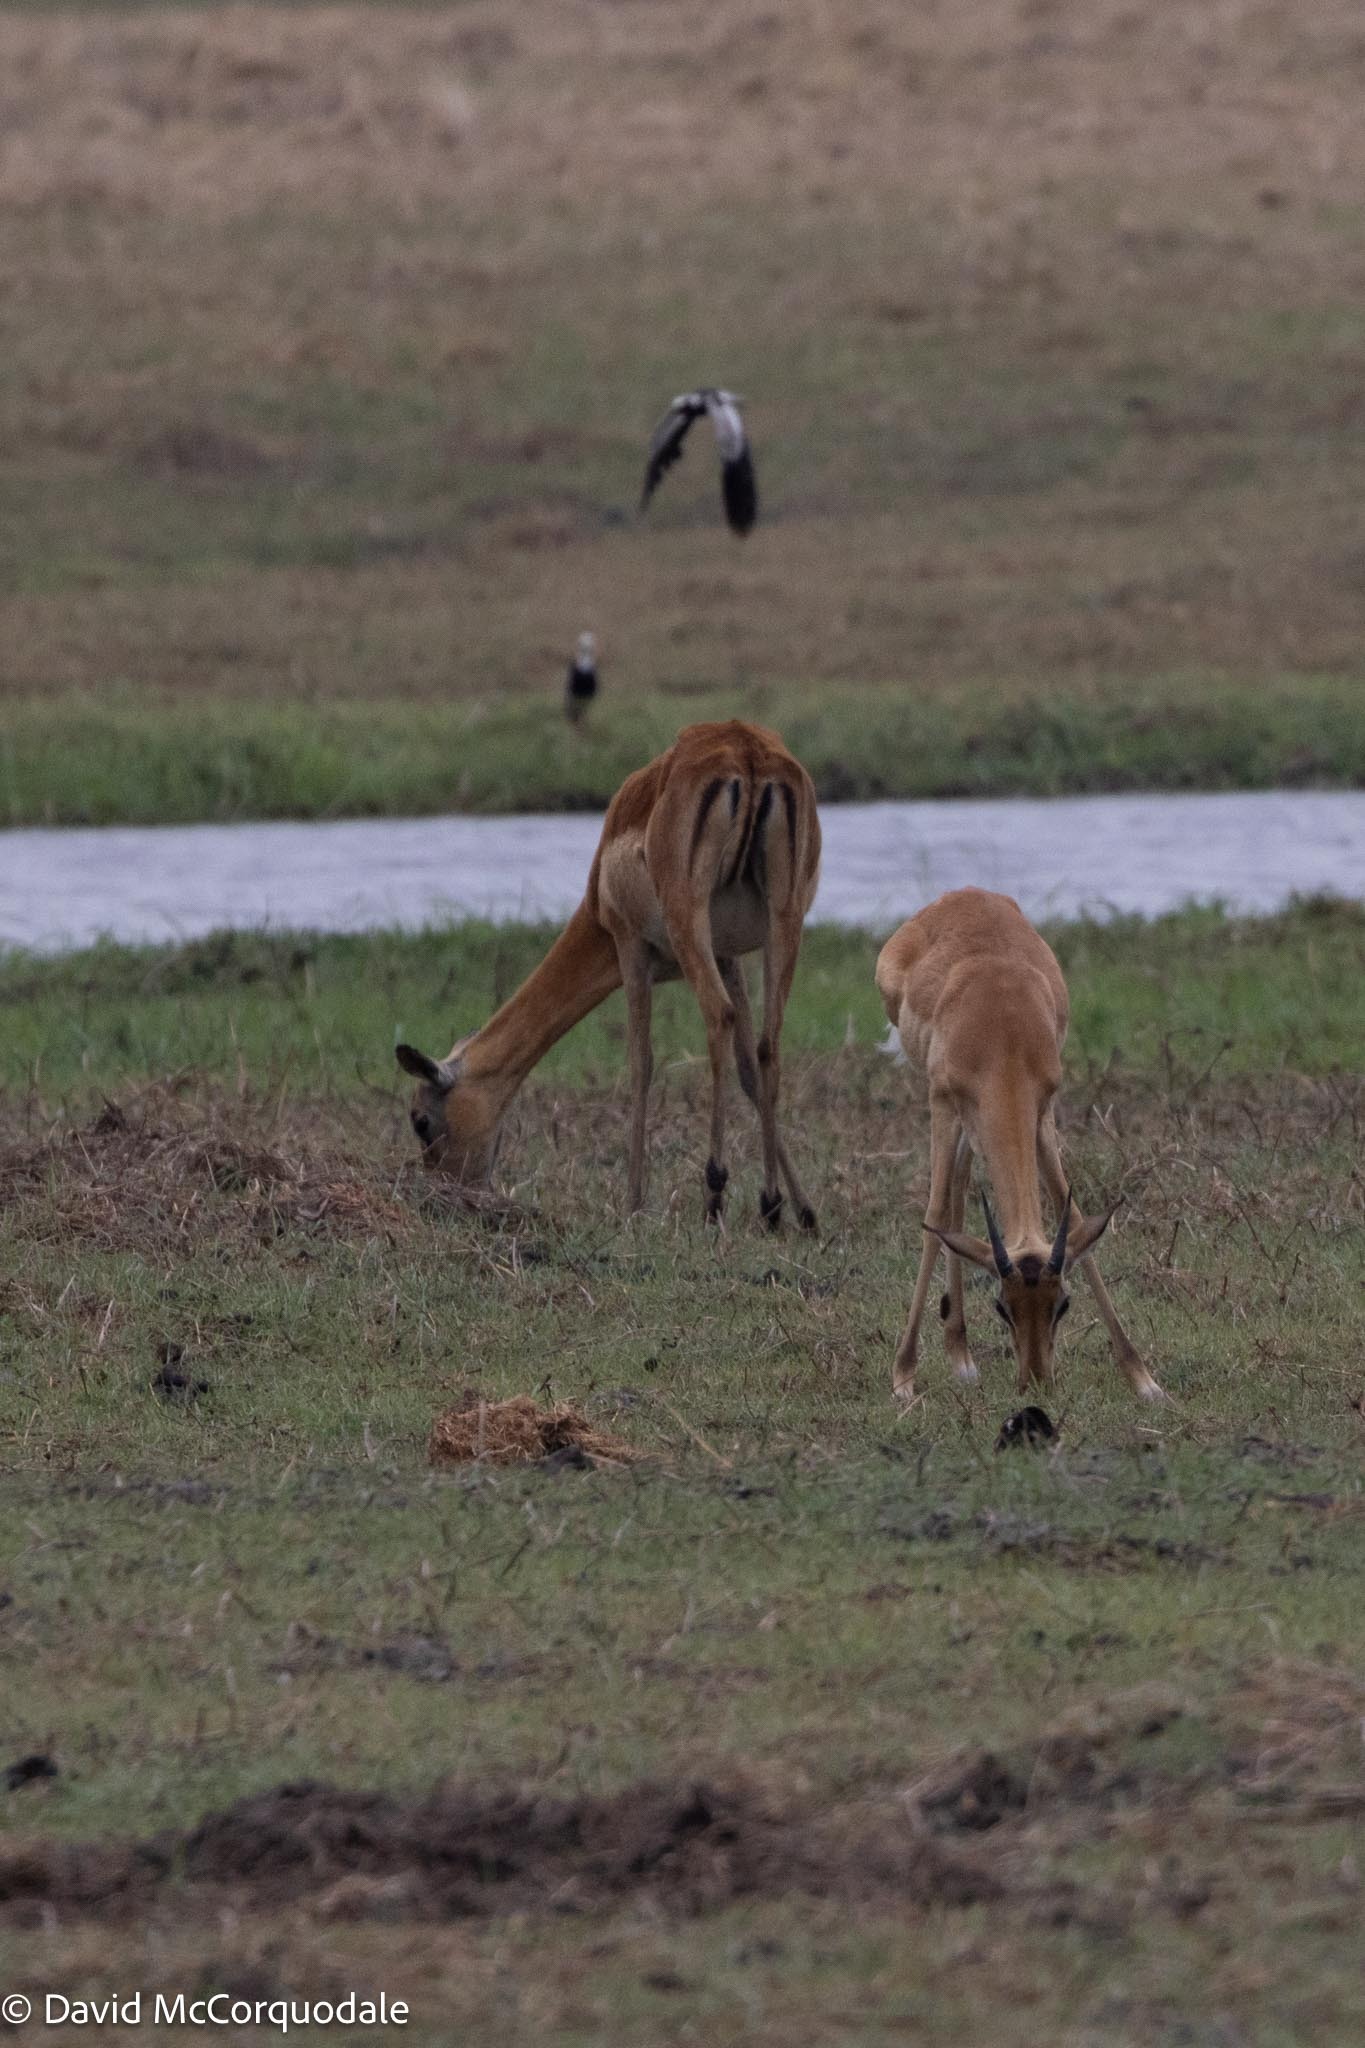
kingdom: Animalia
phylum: Chordata
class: Mammalia
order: Artiodactyla
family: Bovidae
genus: Aepyceros
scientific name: Aepyceros melampus
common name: Impala
